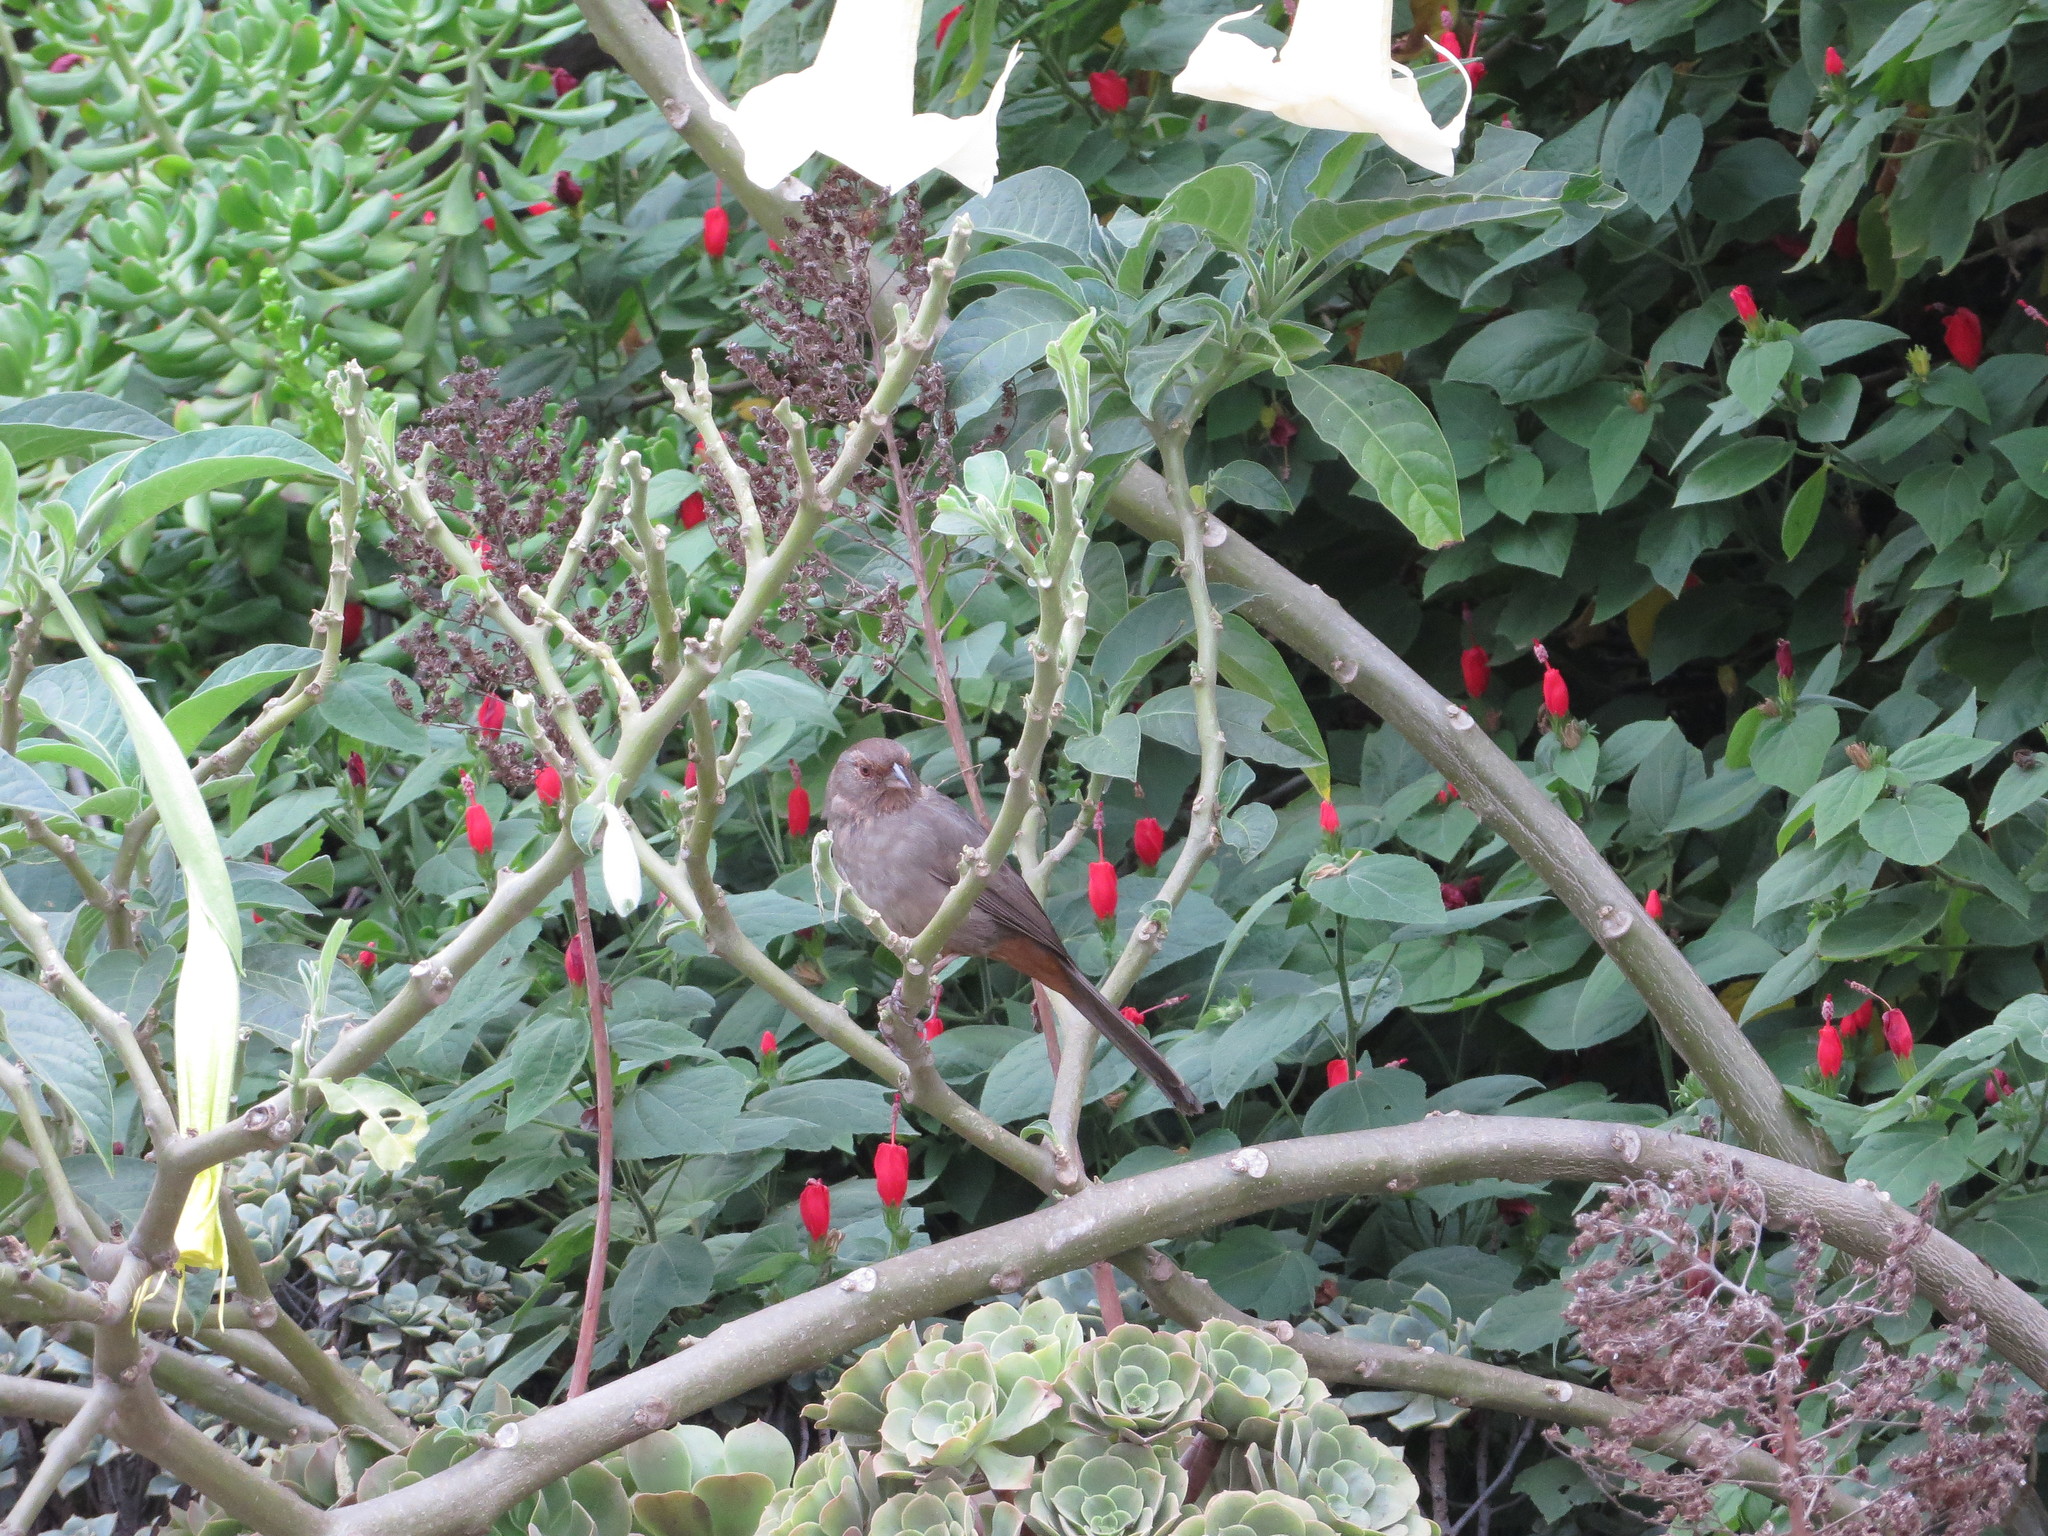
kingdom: Animalia
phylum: Chordata
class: Aves
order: Passeriformes
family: Passerellidae
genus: Melozone
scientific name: Melozone crissalis
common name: California towhee
